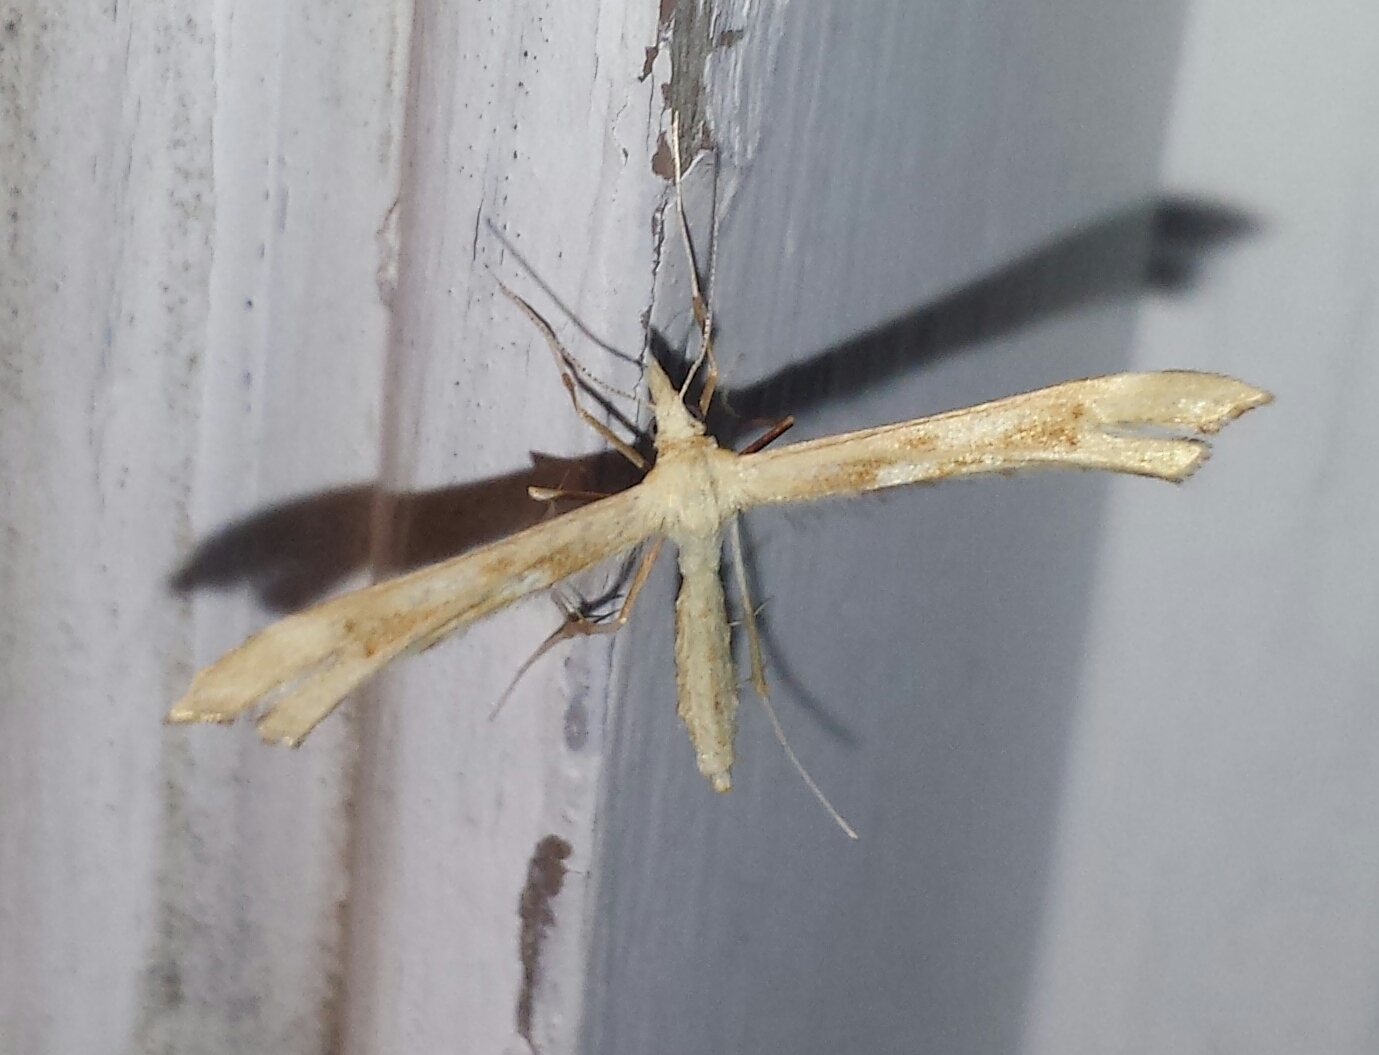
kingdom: Animalia
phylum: Arthropoda
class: Insecta
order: Lepidoptera
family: Pterophoridae
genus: Gillmeria
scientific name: Gillmeria pallidactyla
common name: Yarrow plume
